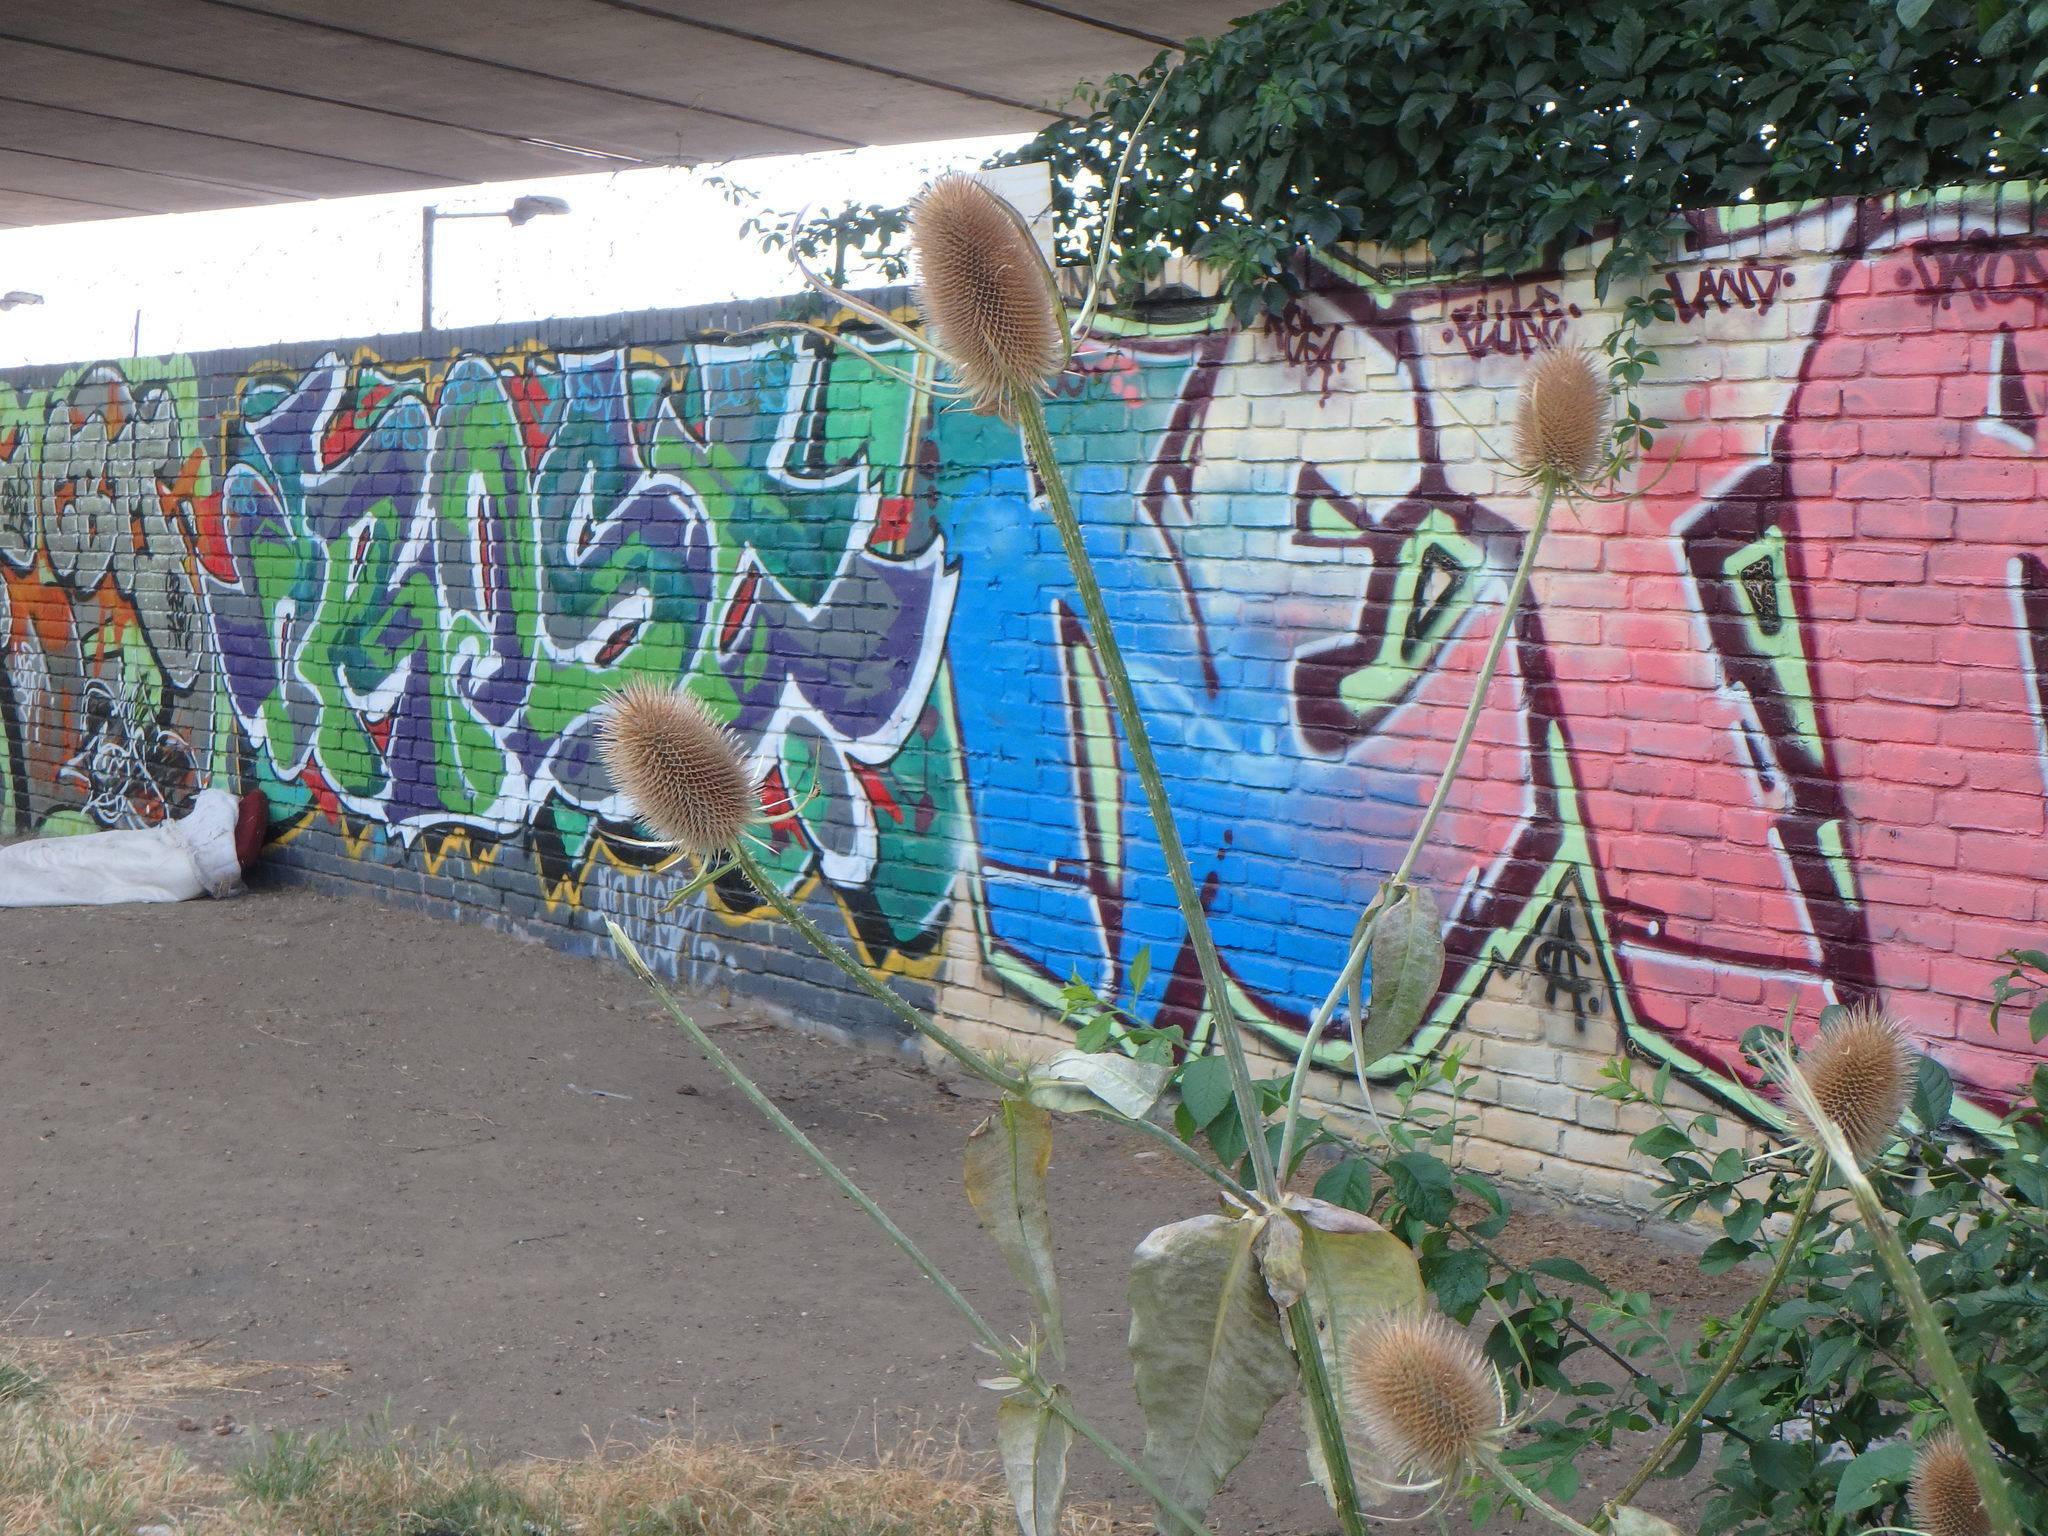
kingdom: Plantae
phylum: Tracheophyta
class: Magnoliopsida
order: Dipsacales
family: Caprifoliaceae
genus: Dipsacus
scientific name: Dipsacus fullonum
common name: Teasel
